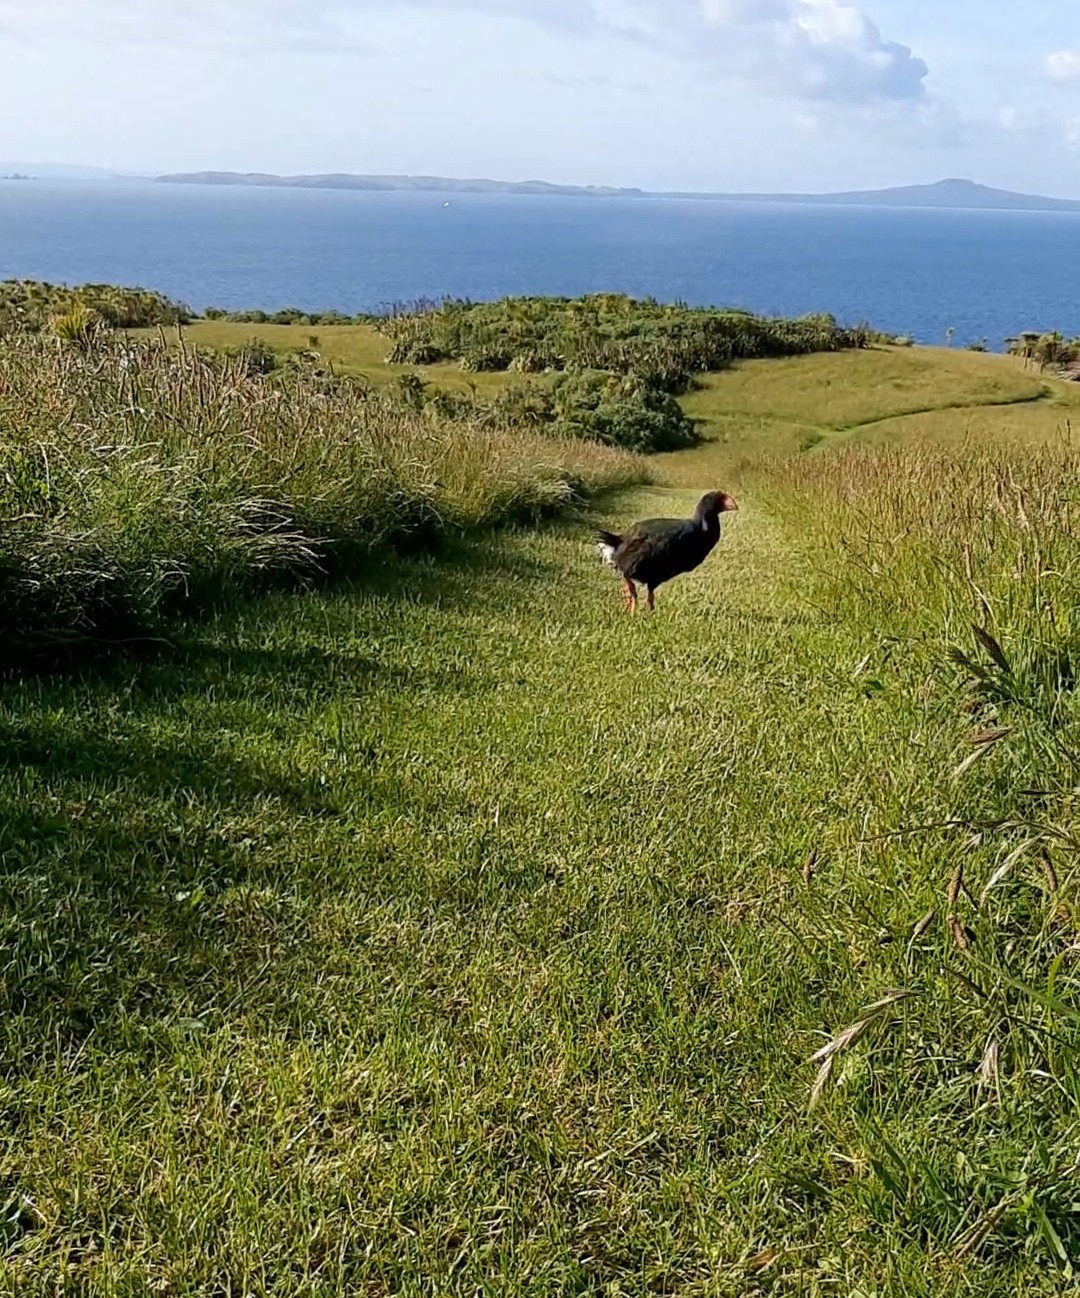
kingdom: Animalia
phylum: Chordata
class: Aves
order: Gruiformes
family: Rallidae
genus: Porphyrio
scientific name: Porphyrio hochstetteri
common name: South island takahe
